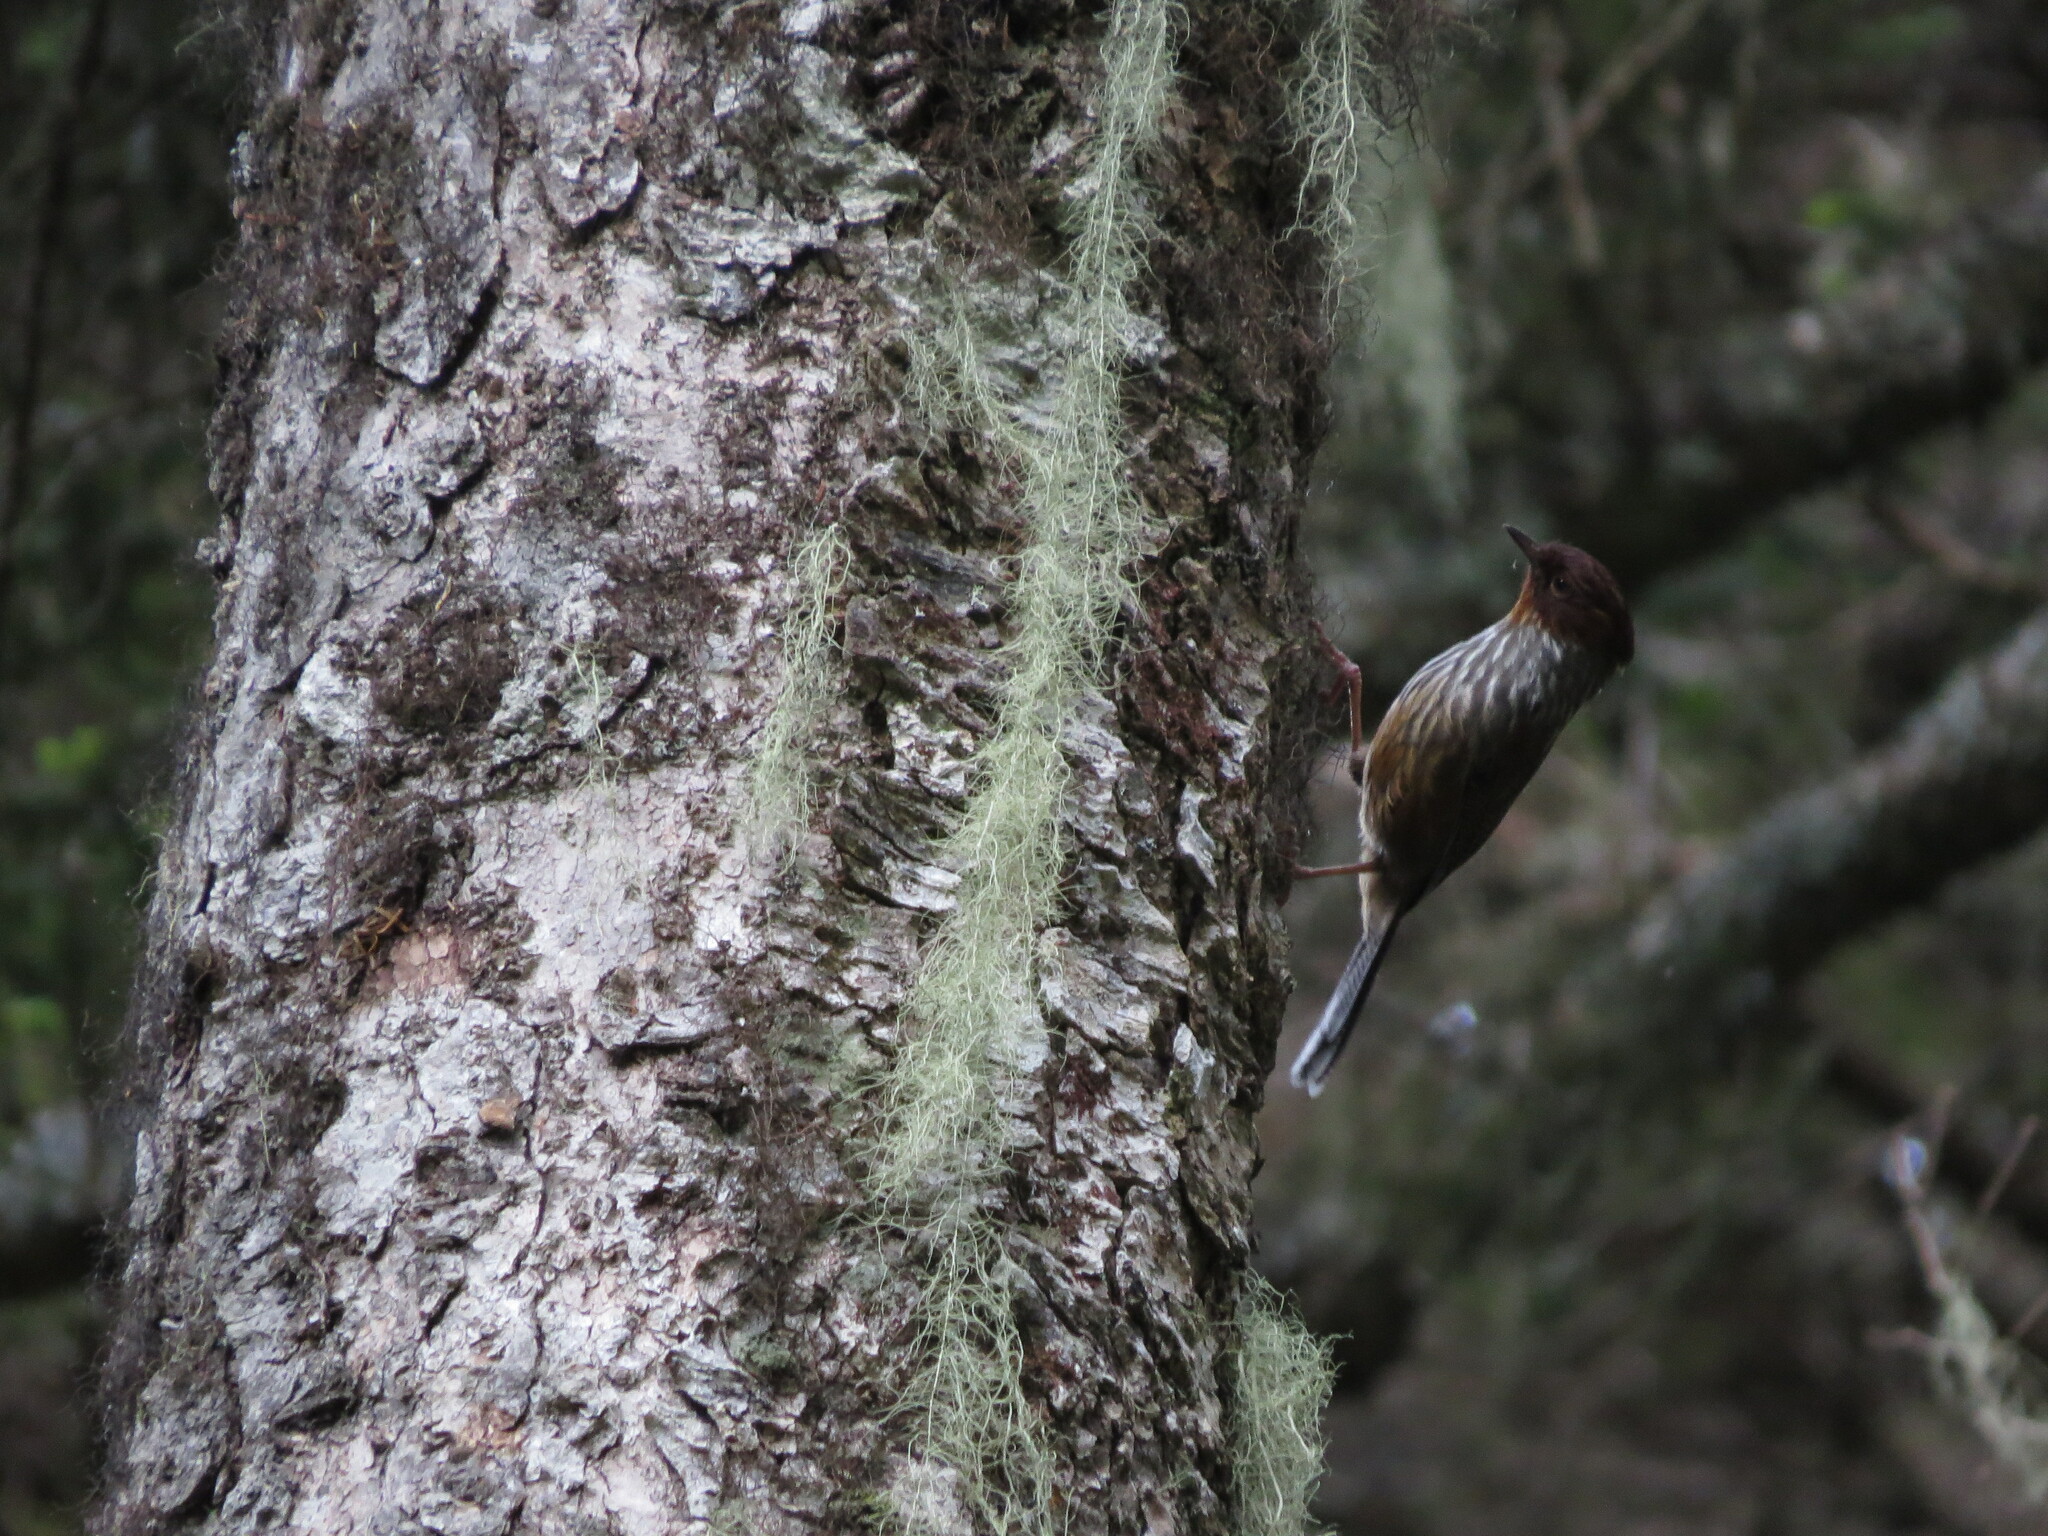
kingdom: Animalia
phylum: Chordata
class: Aves
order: Passeriformes
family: Leiothrichidae
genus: Actinodura
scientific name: Actinodura morrisoniana
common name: Taiwan barwing
